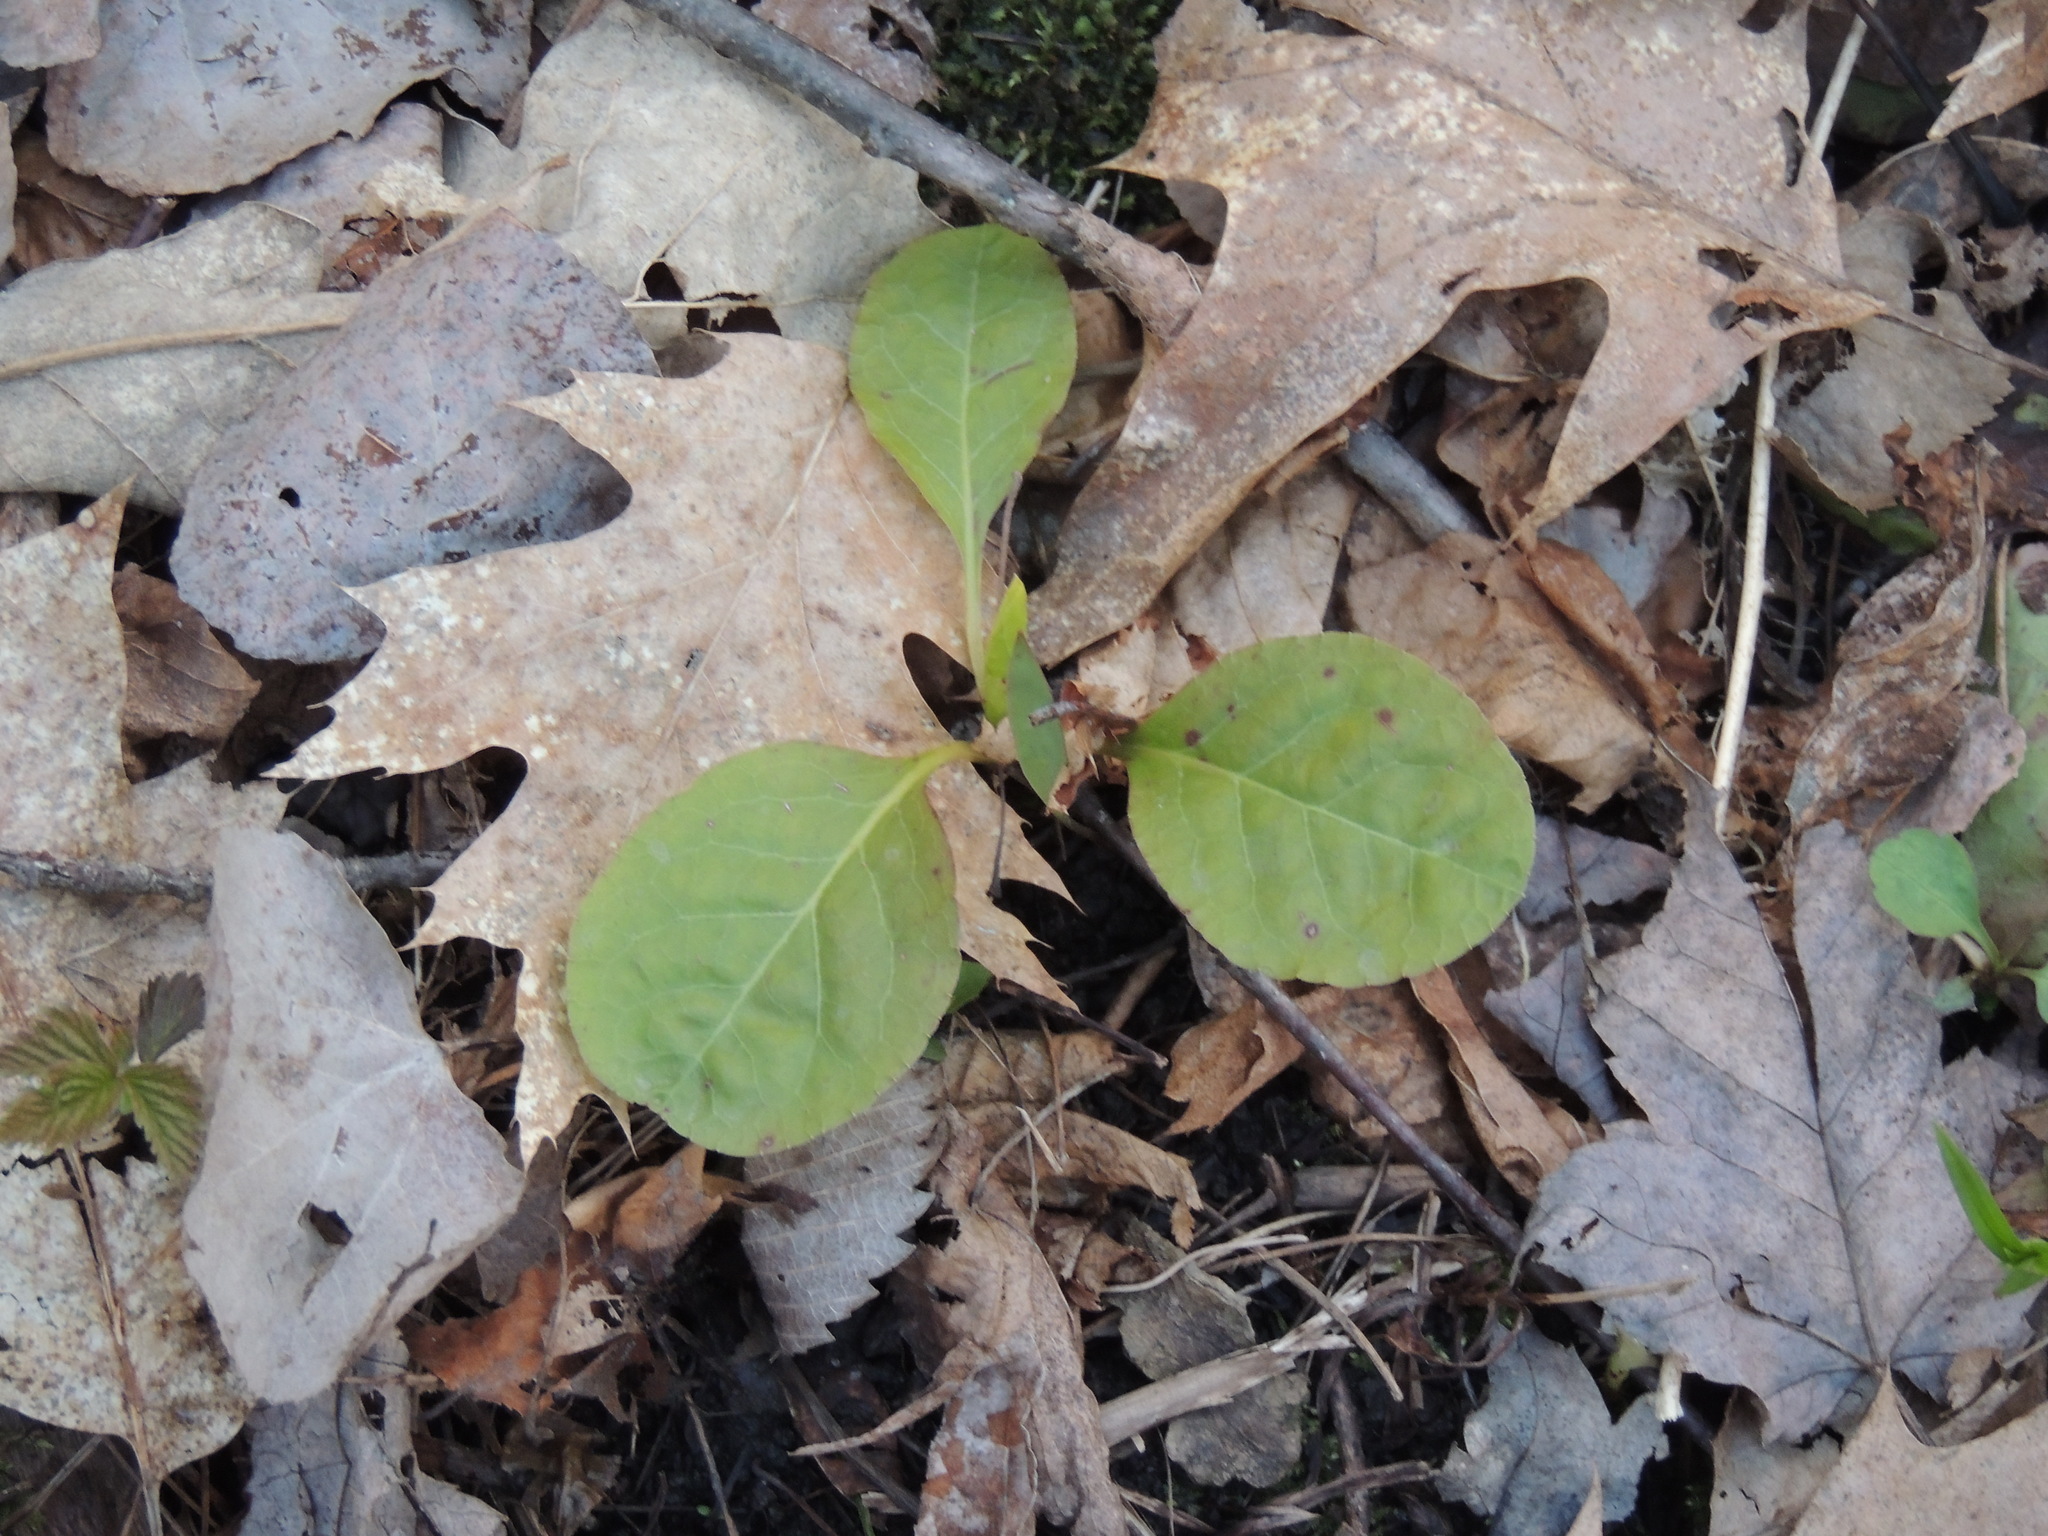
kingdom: Plantae
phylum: Tracheophyta
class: Magnoliopsida
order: Ericales
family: Ericaceae
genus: Pyrola
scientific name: Pyrola elliptica
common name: Shinleaf
